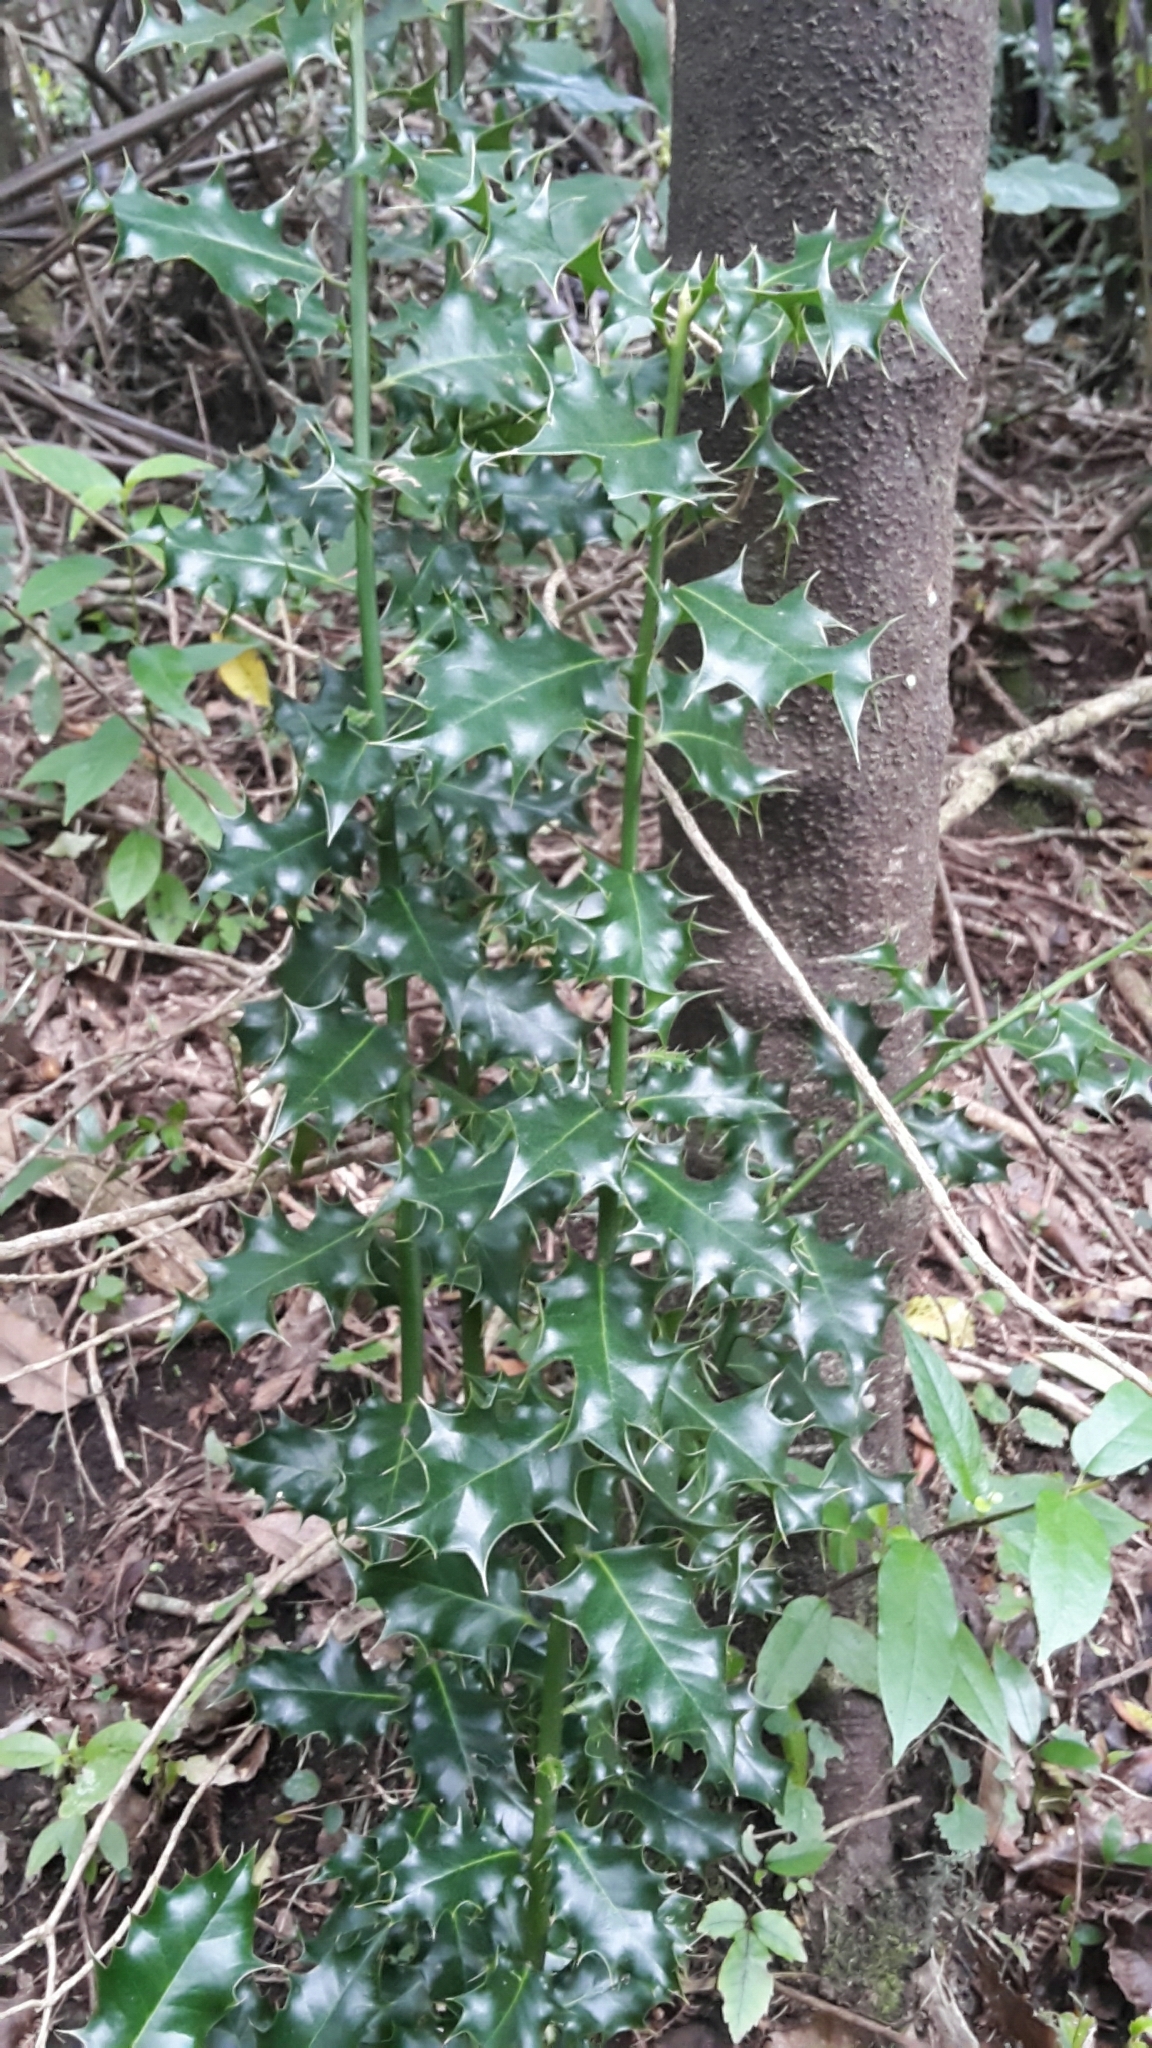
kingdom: Plantae
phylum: Tracheophyta
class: Magnoliopsida
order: Aquifoliales
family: Aquifoliaceae
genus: Ilex
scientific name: Ilex aquifolium
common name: English holly
